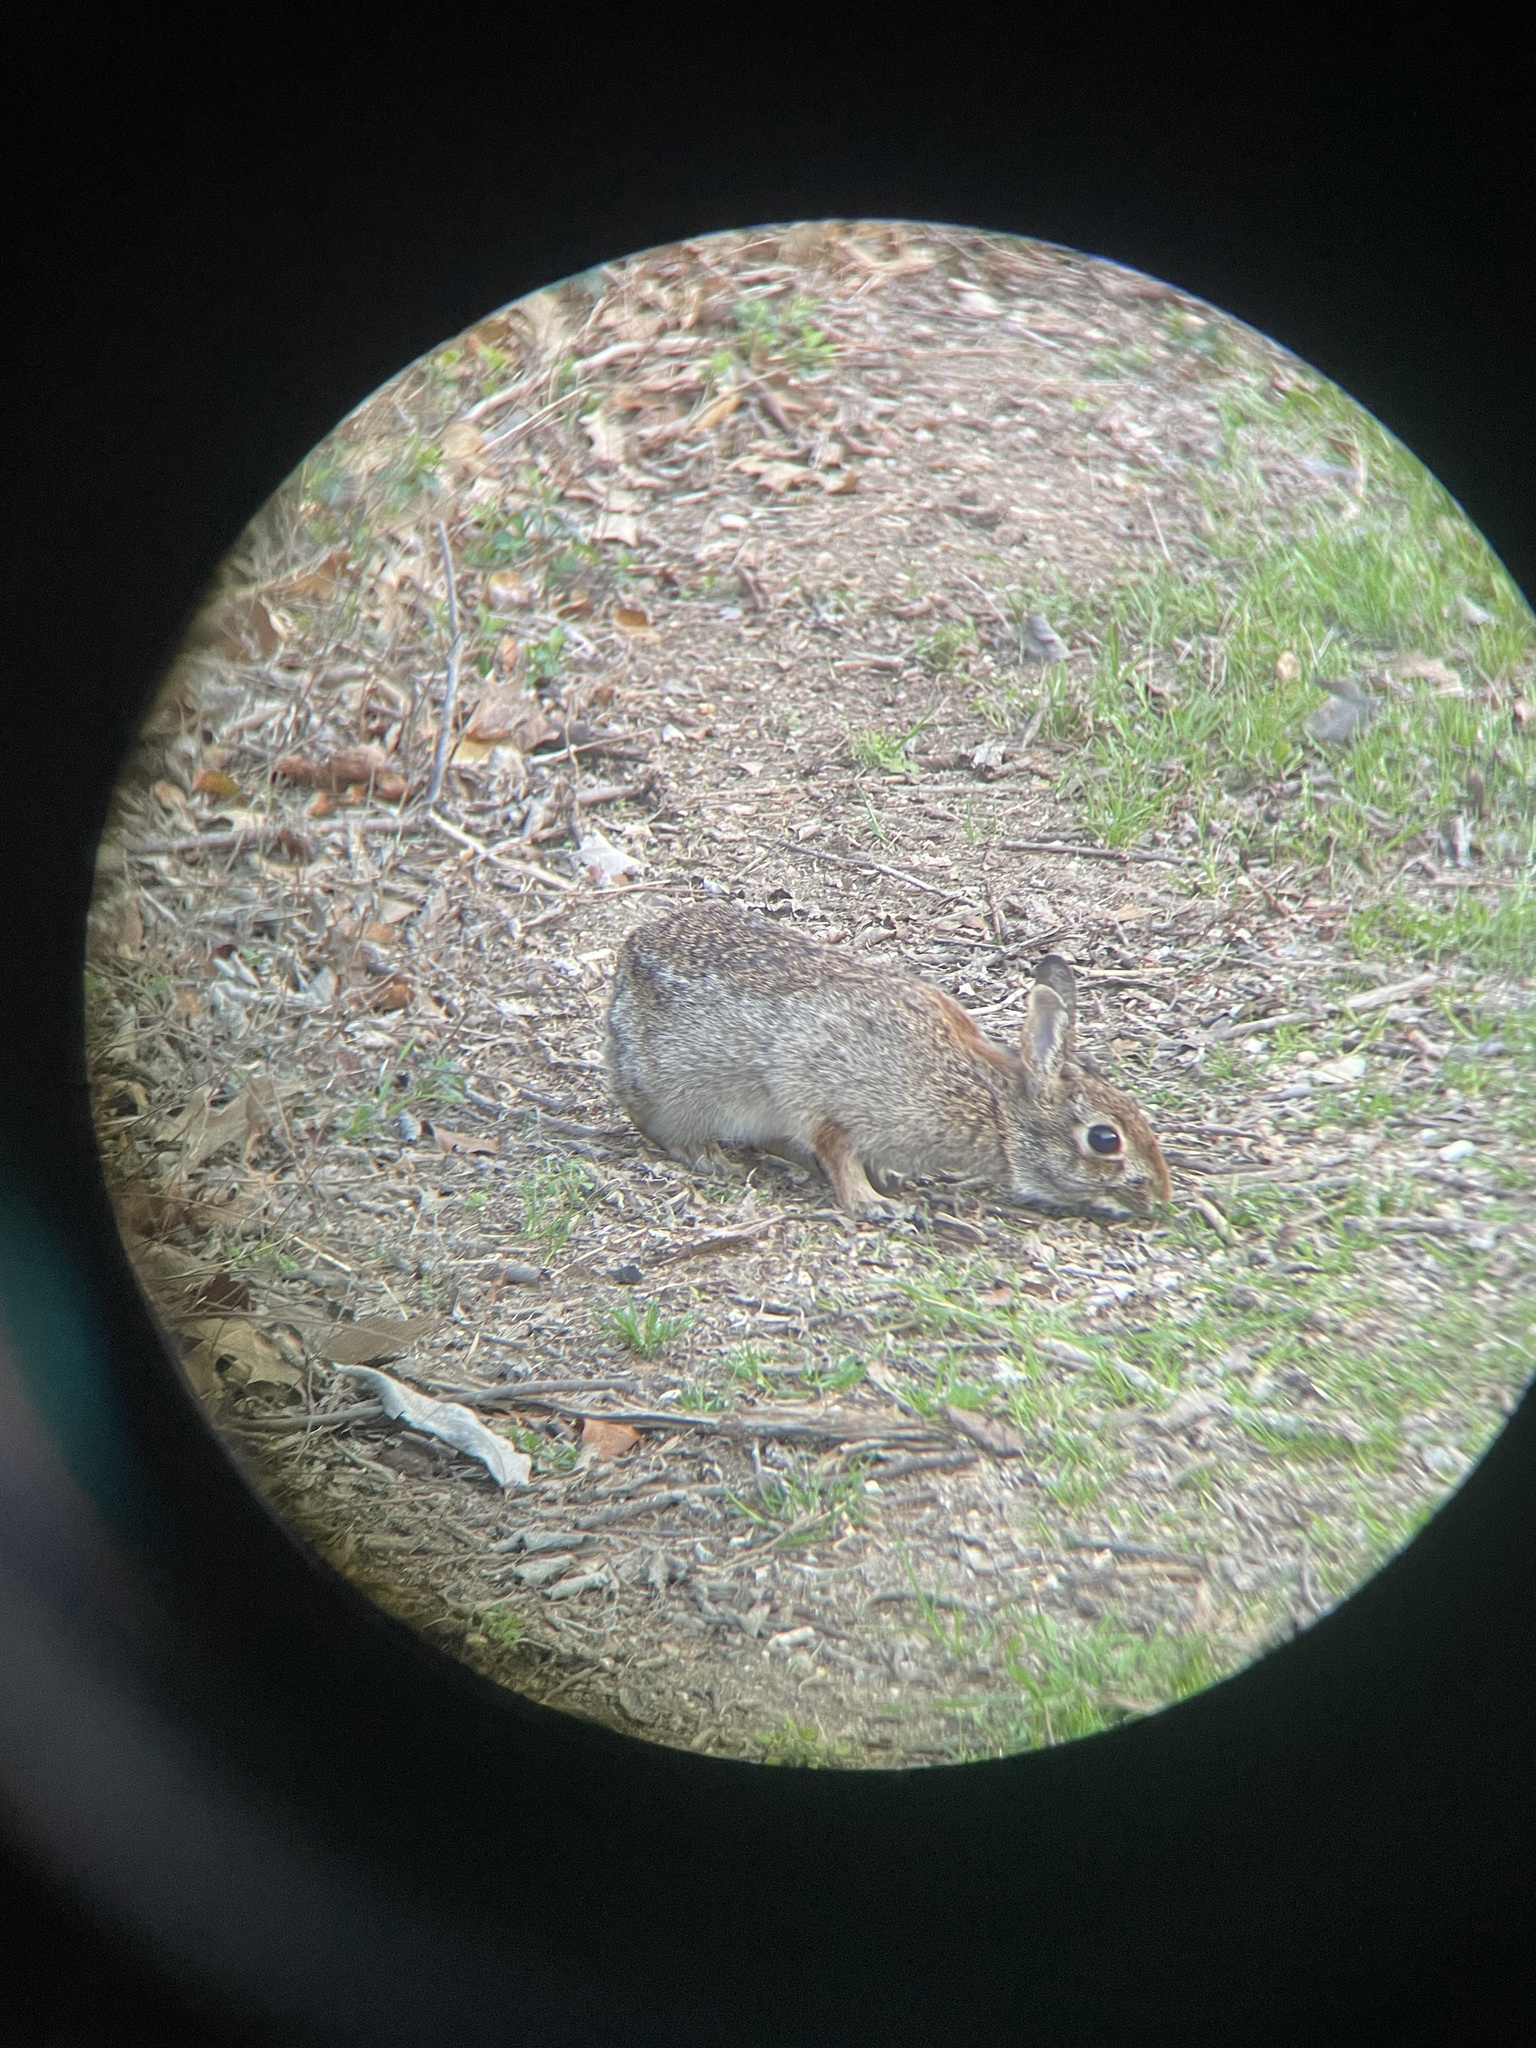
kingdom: Animalia
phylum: Chordata
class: Mammalia
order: Lagomorpha
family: Leporidae
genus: Sylvilagus
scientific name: Sylvilagus floridanus
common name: Eastern cottontail
